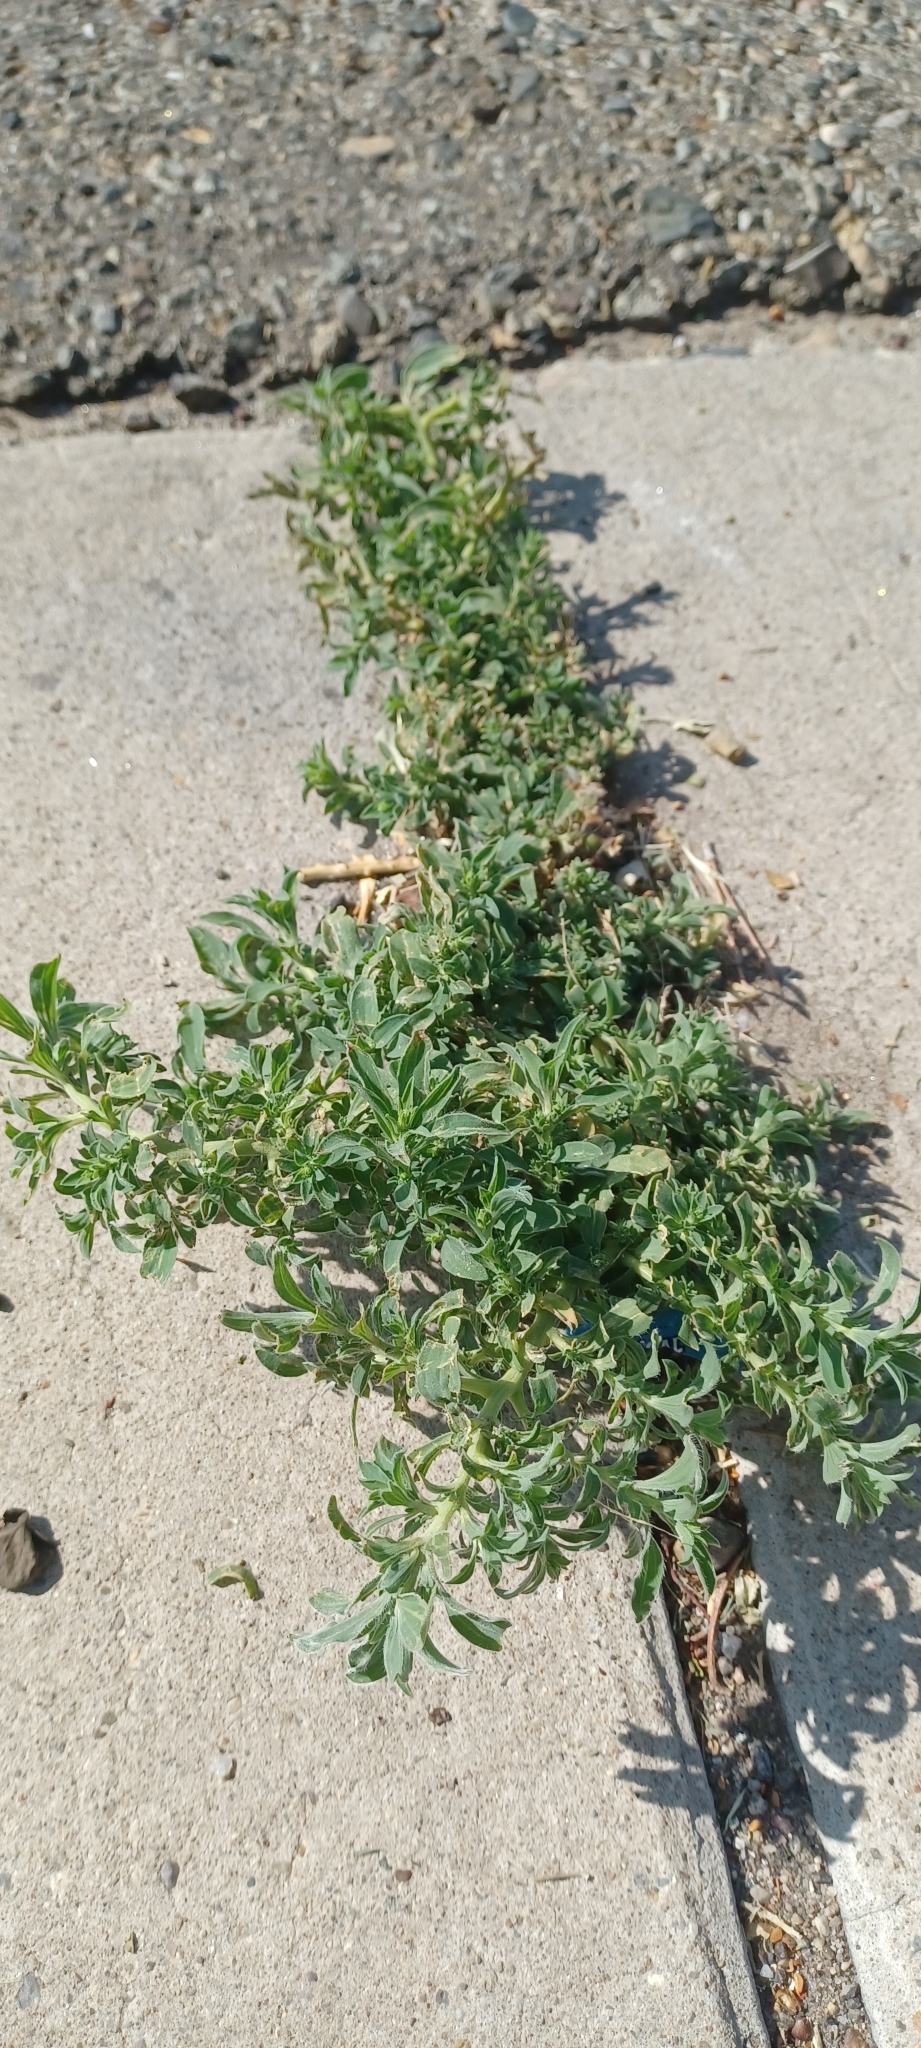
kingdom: Plantae
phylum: Tracheophyta
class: Magnoliopsida
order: Caryophyllales
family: Amaranthaceae
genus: Bassia
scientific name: Bassia scoparia
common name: Belvedere
